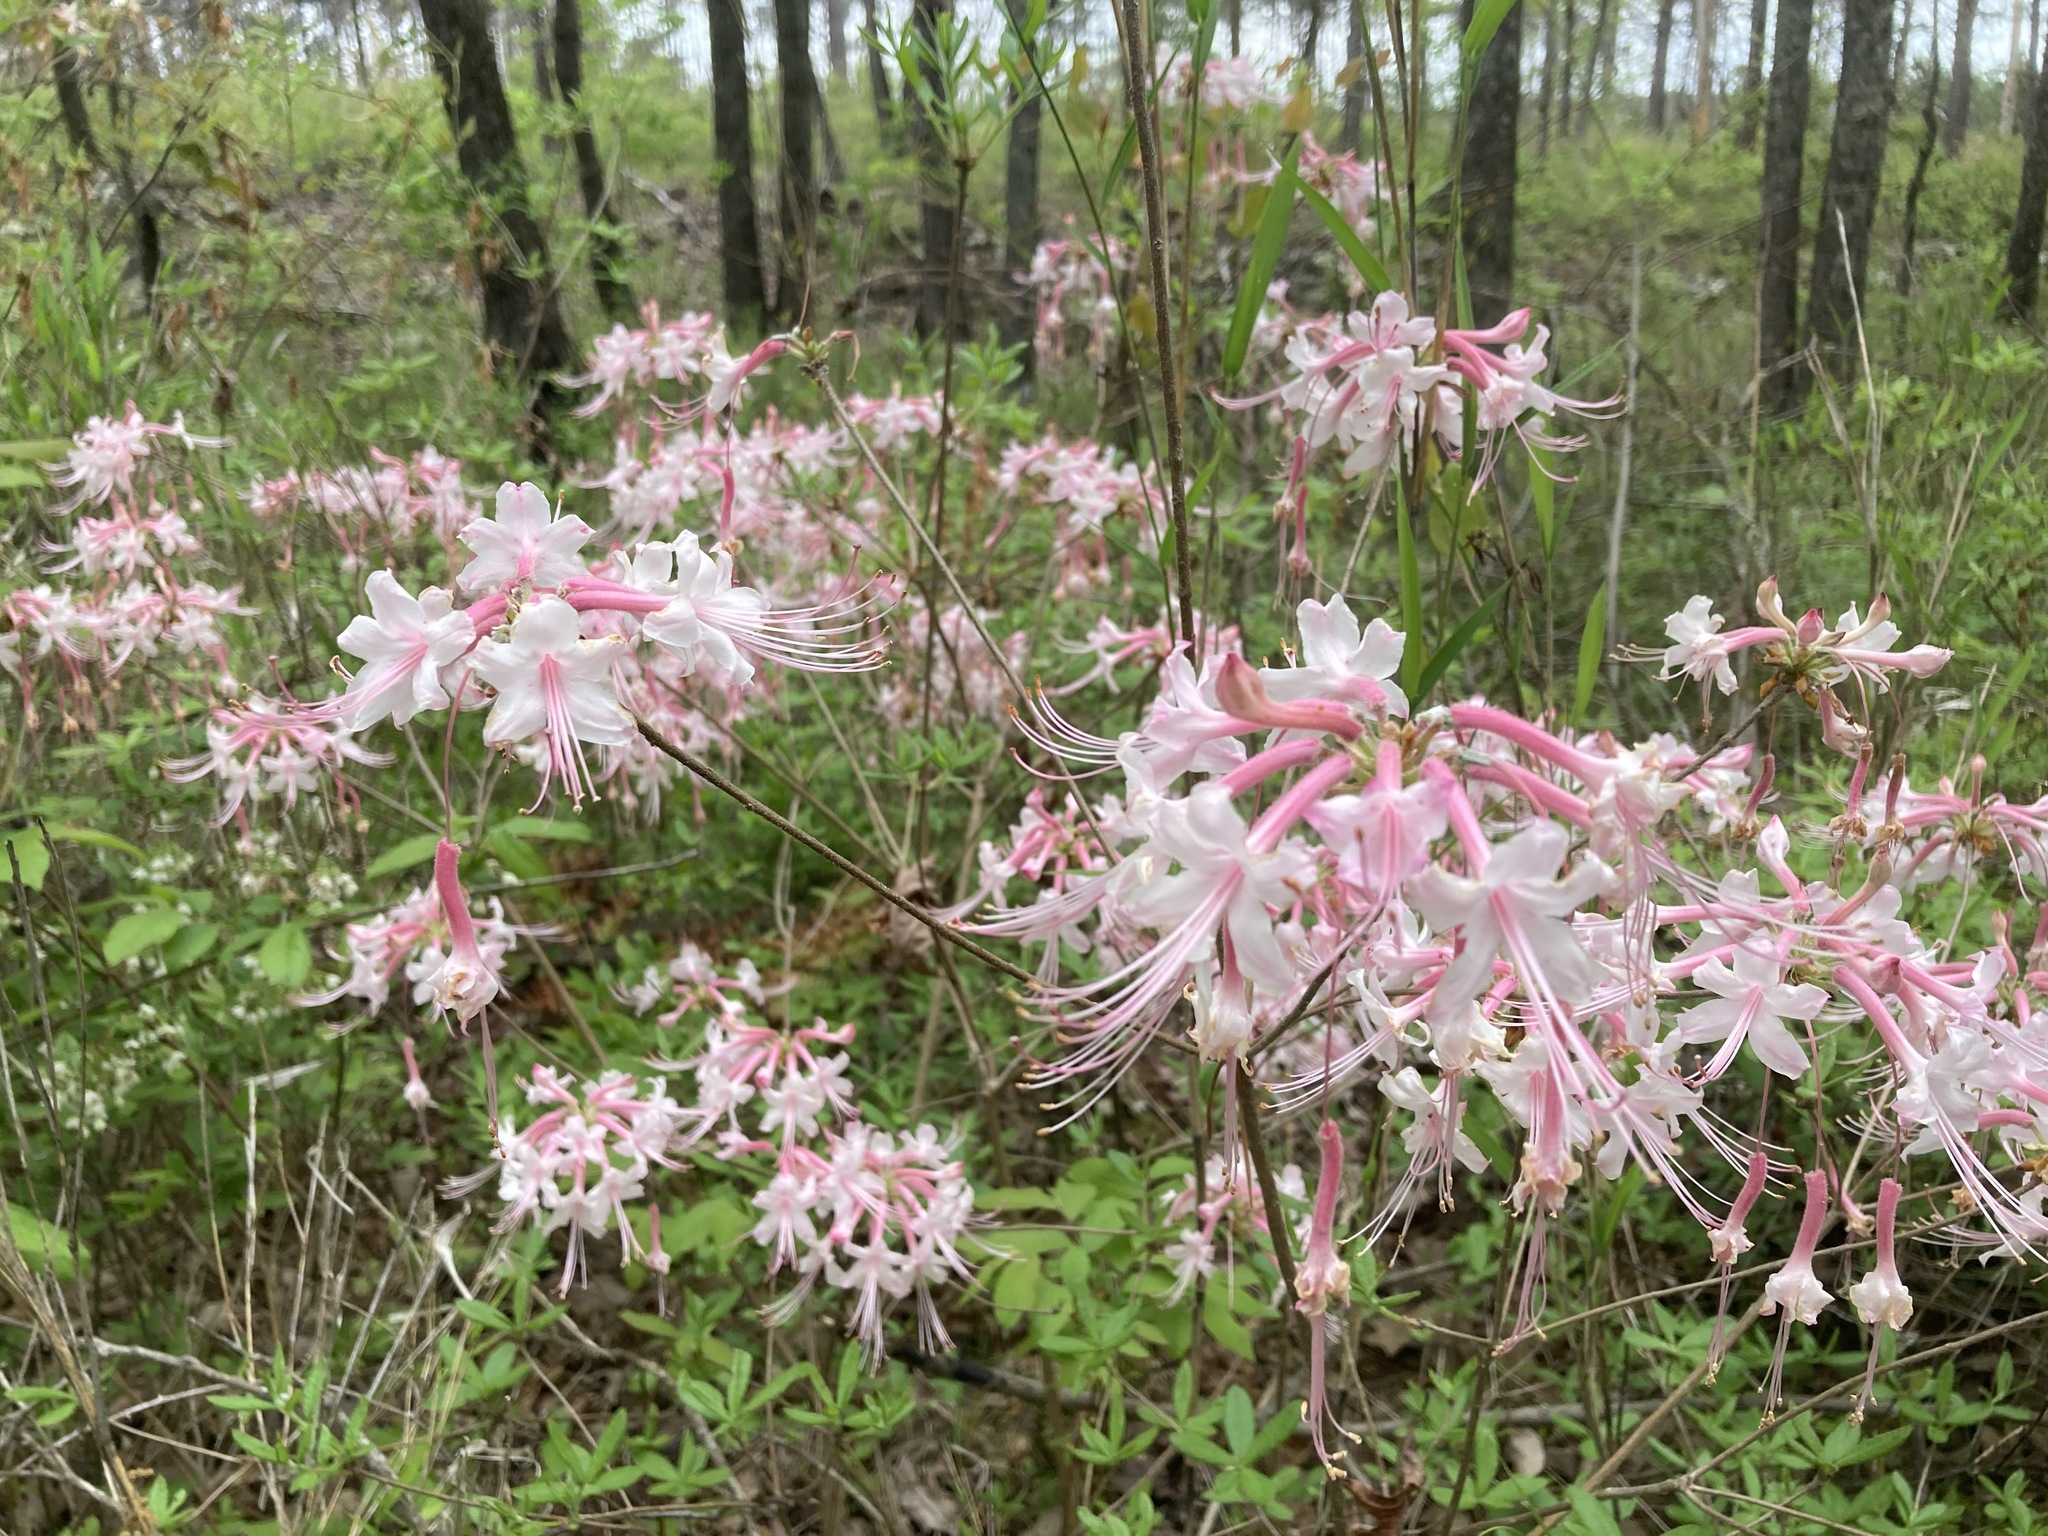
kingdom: Plantae
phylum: Tracheophyta
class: Magnoliopsida
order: Ericales
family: Ericaceae
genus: Rhododendron
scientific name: Rhododendron canescens
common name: Mountain azalea
